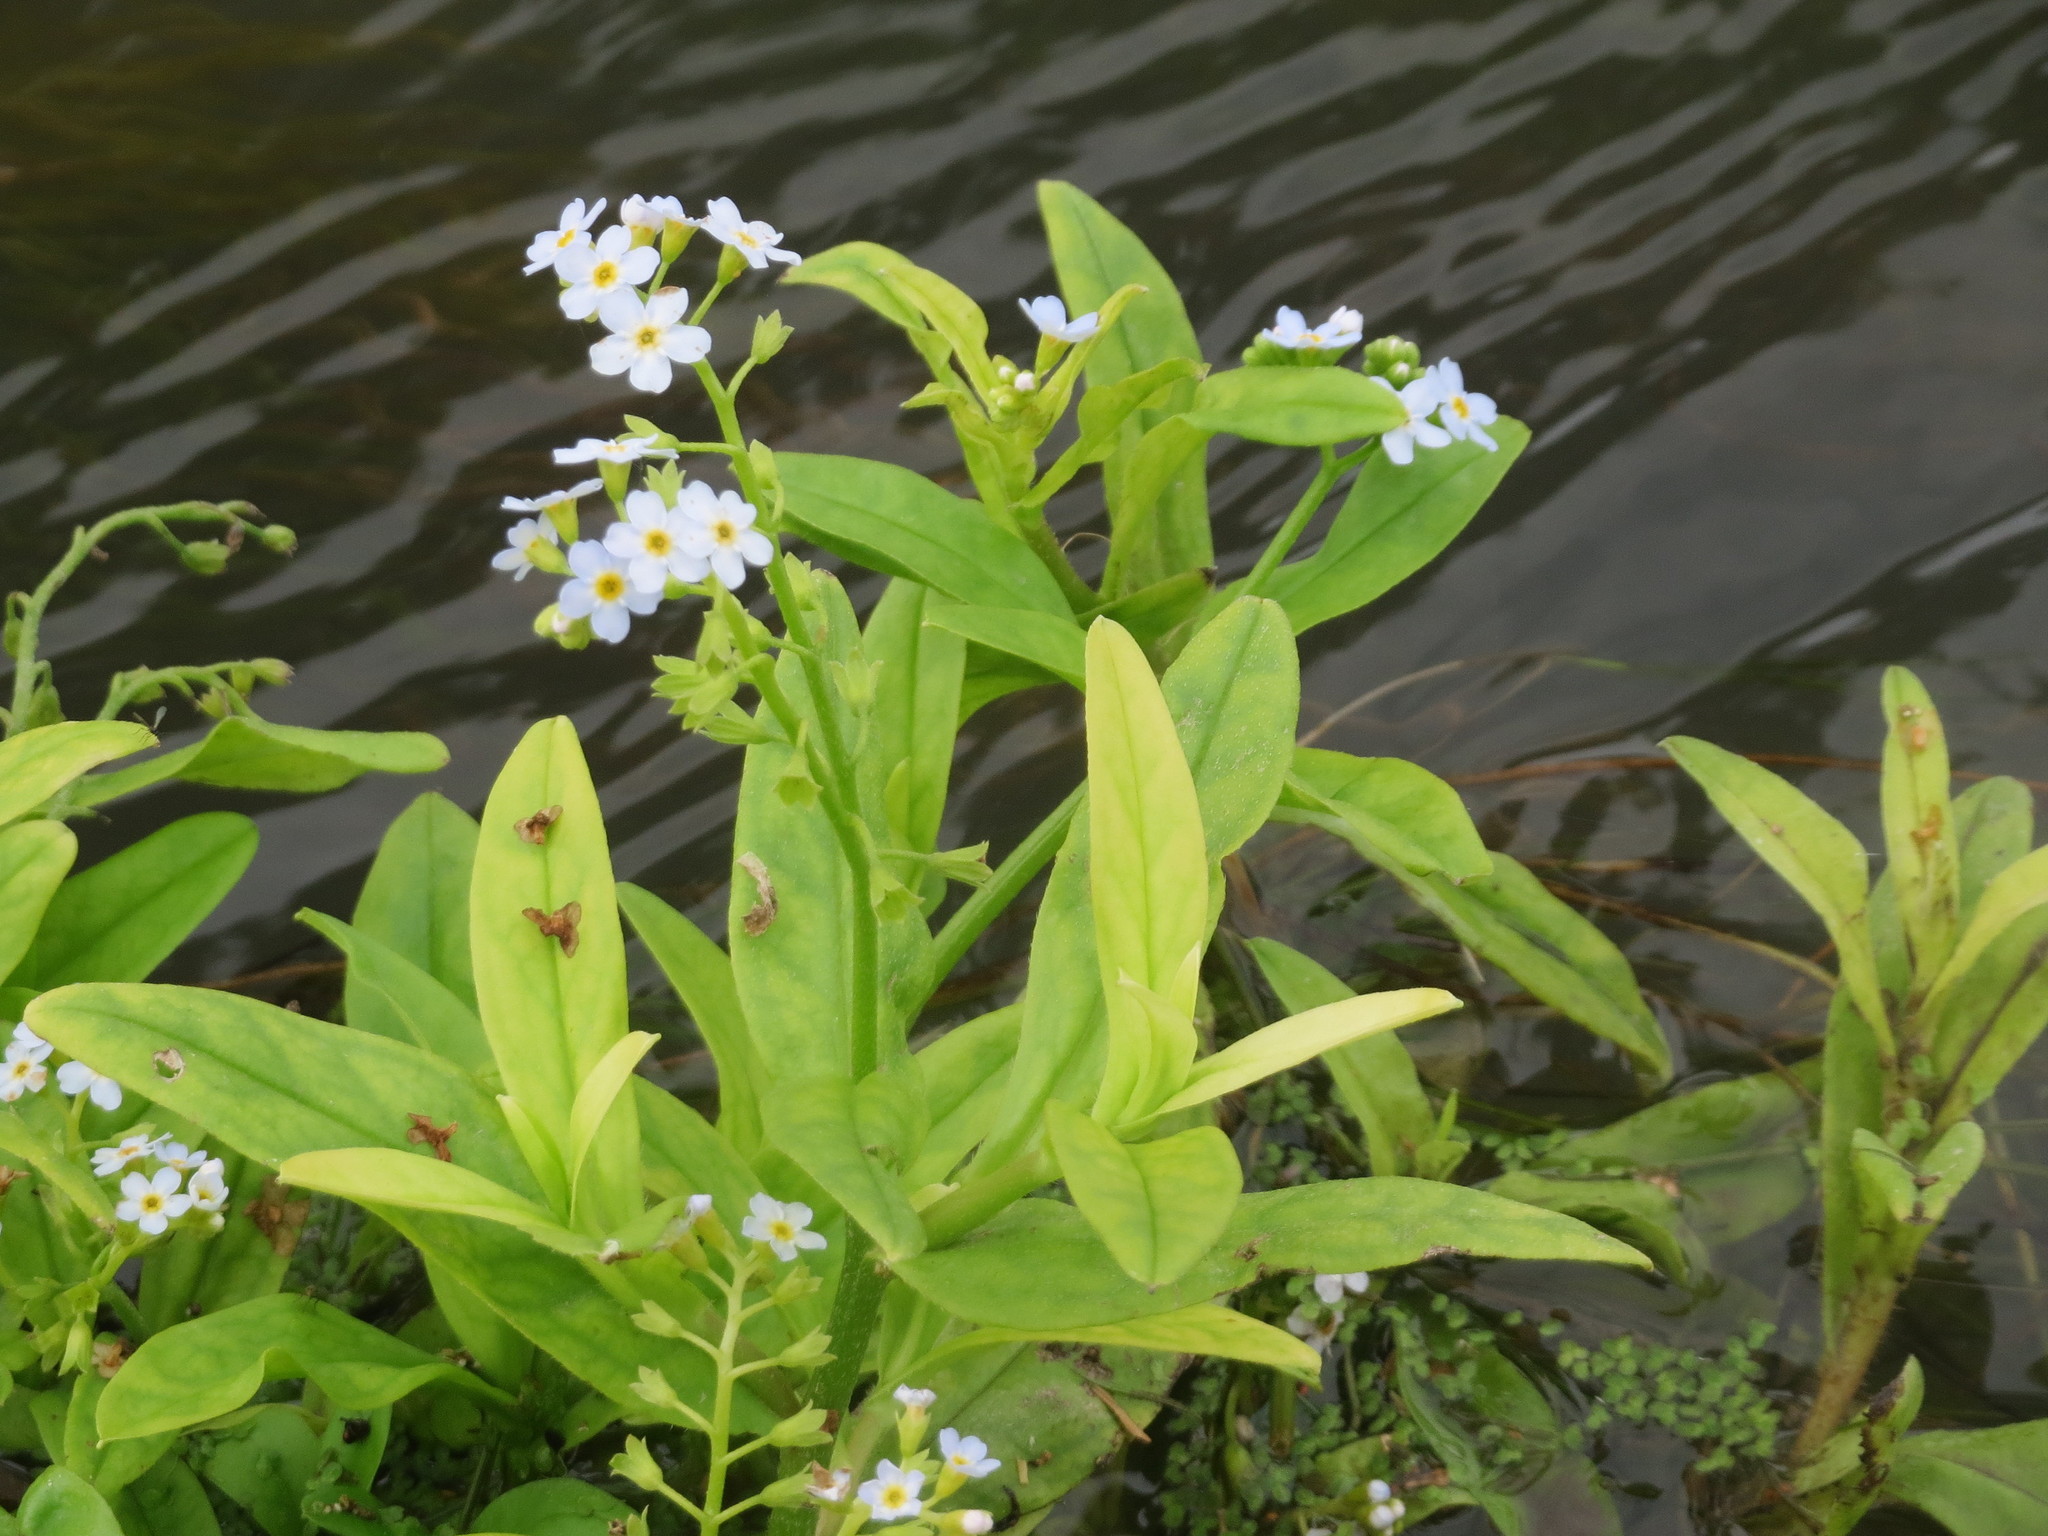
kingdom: Plantae
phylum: Tracheophyta
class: Magnoliopsida
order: Boraginales
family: Boraginaceae
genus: Myosotis
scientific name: Myosotis scorpioides
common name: Water forget-me-not
